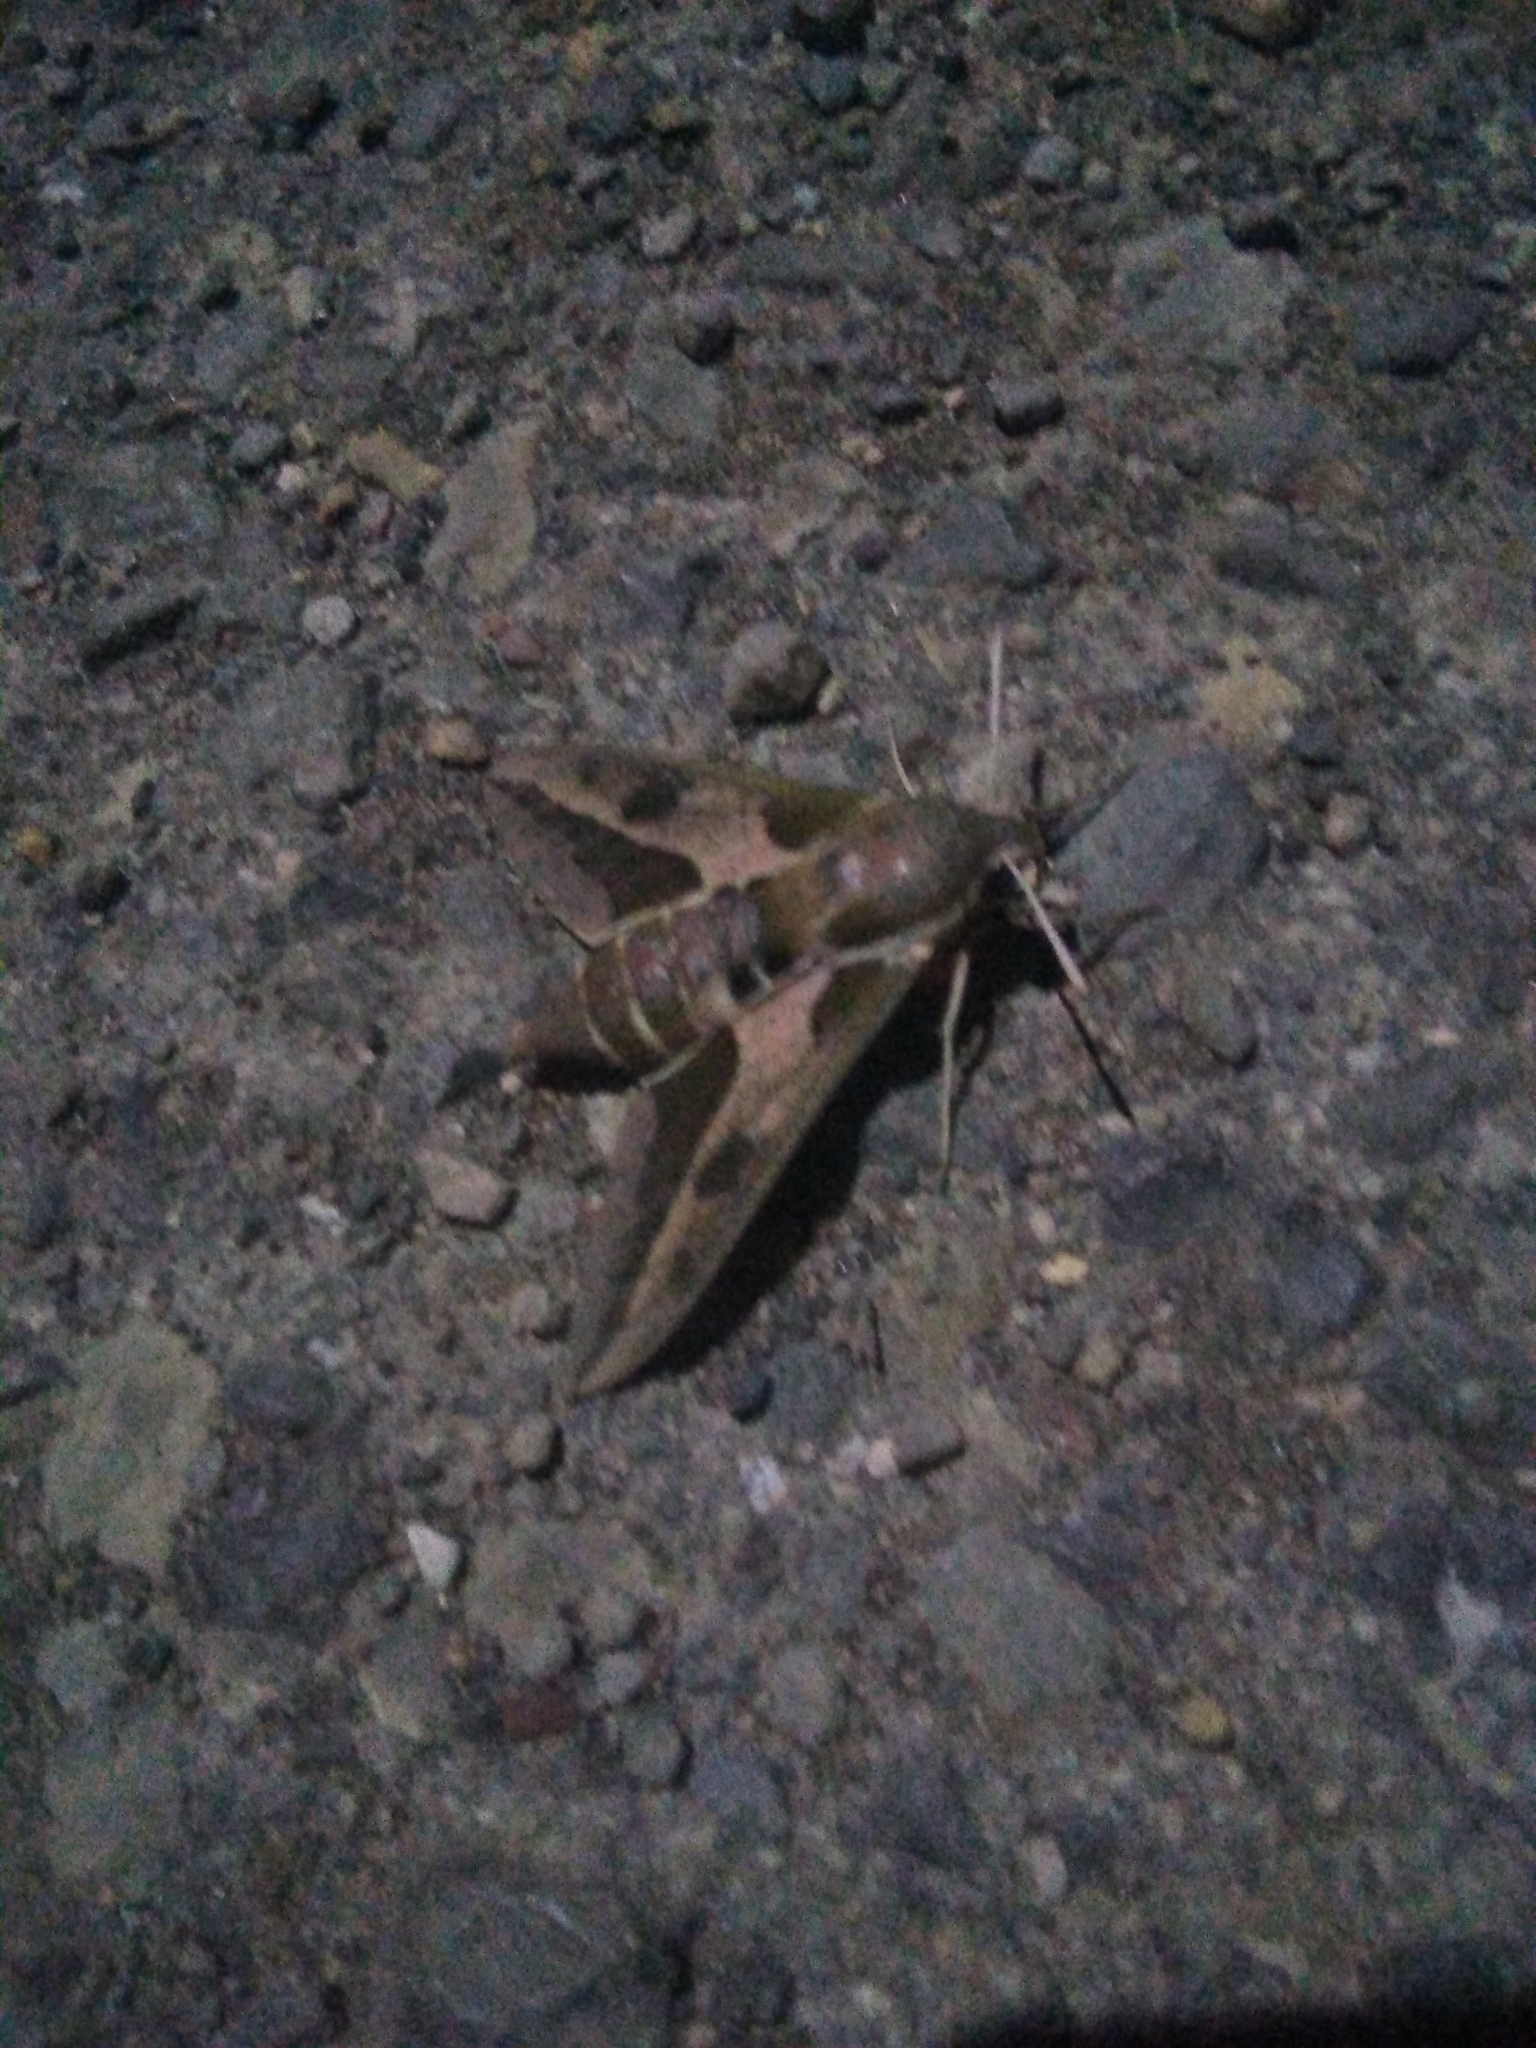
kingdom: Animalia
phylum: Arthropoda
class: Insecta
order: Lepidoptera
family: Sphingidae
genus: Hyles
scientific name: Hyles euphorbiae
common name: Spurge hawk-moth
